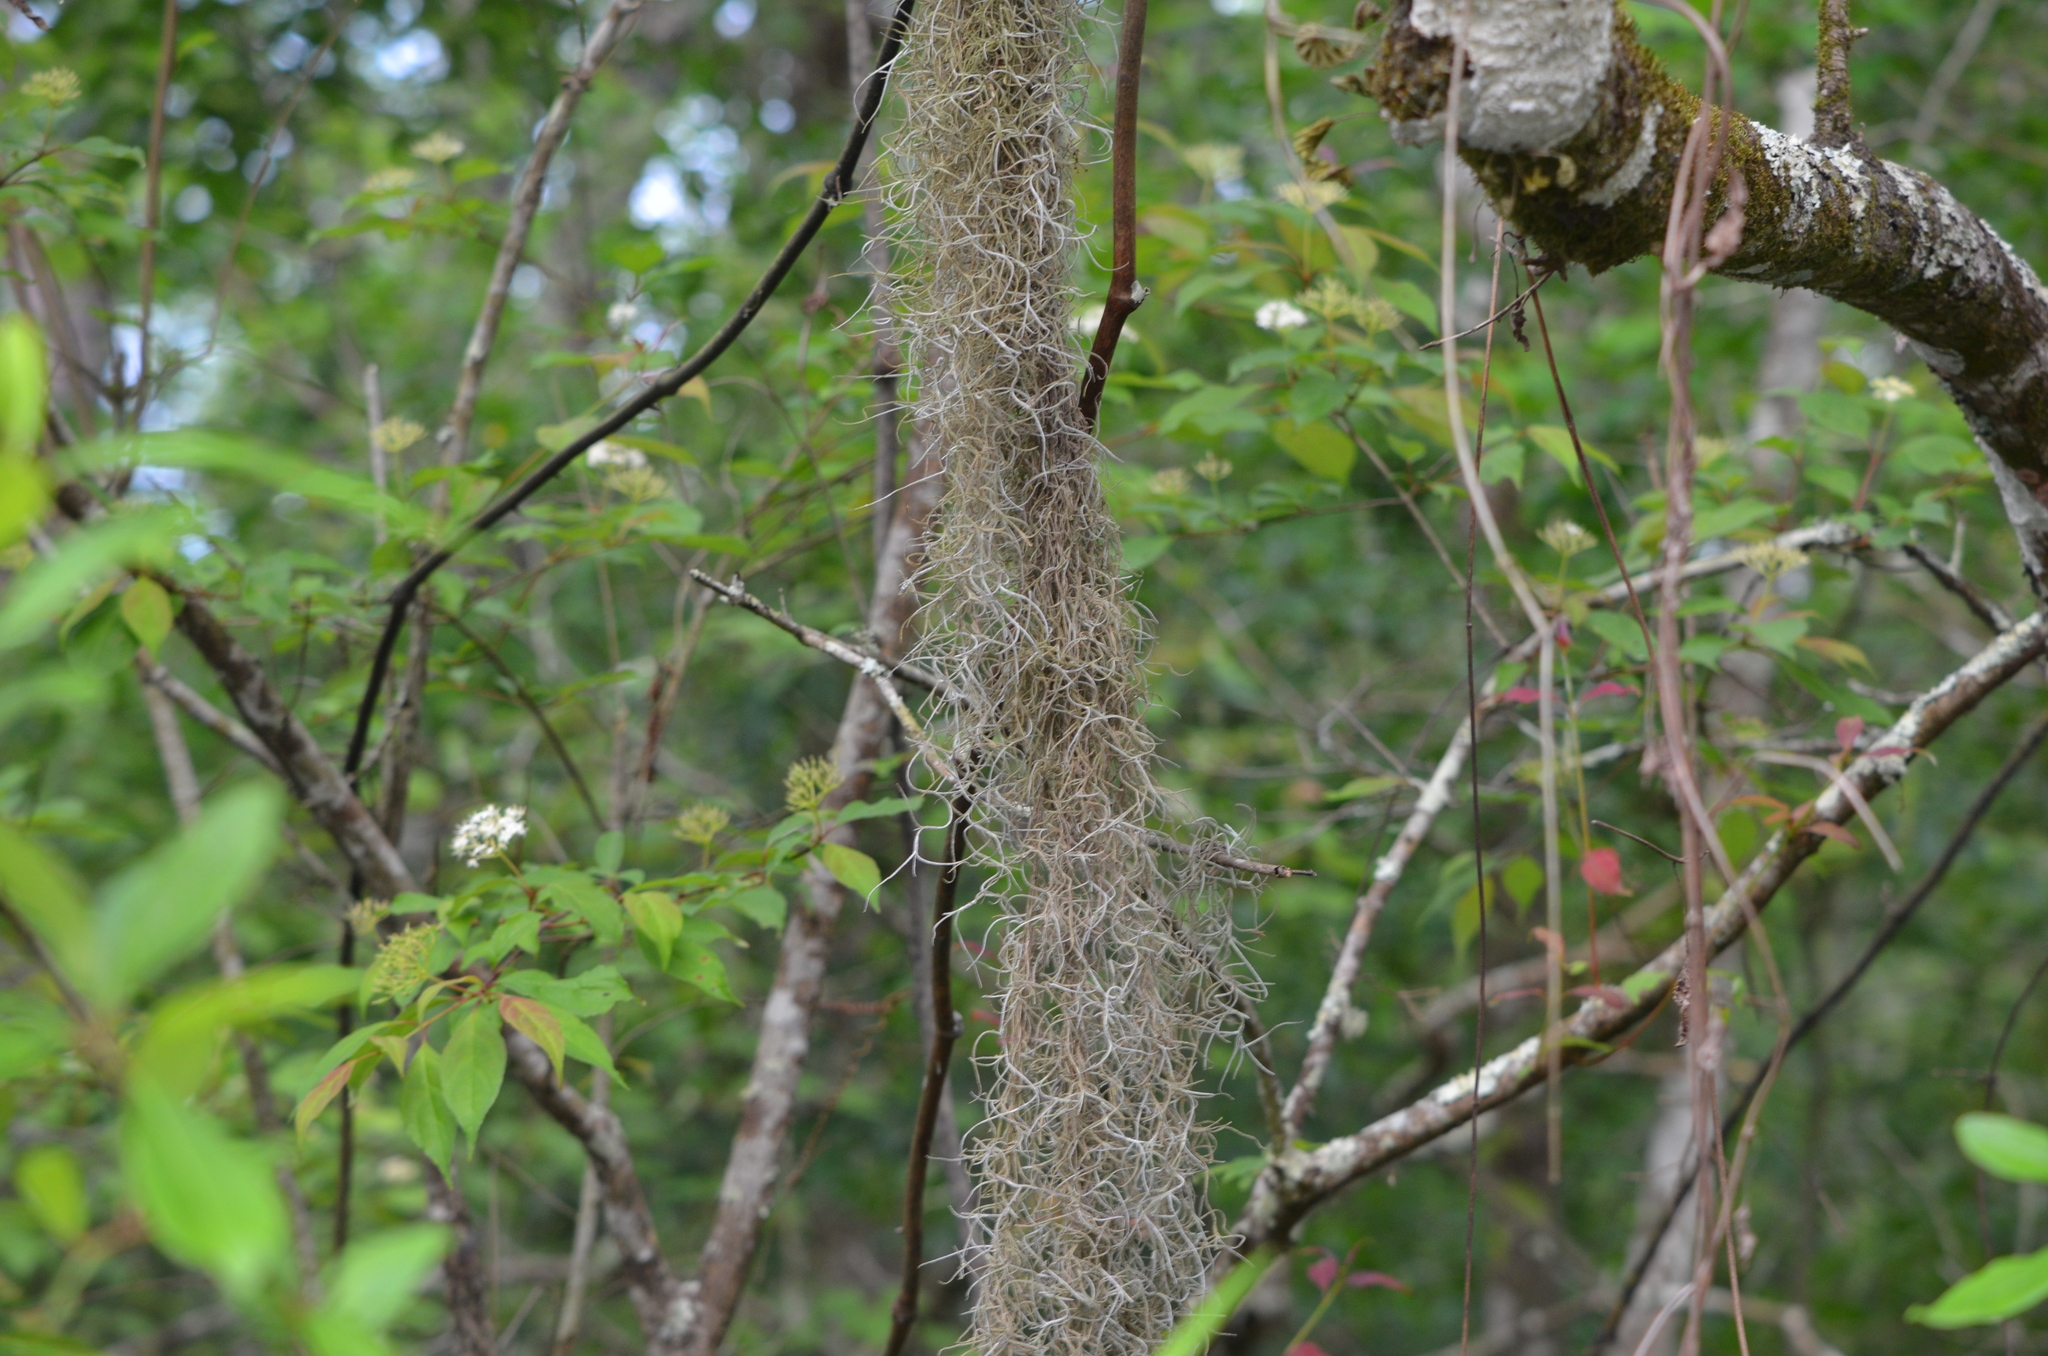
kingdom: Plantae
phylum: Tracheophyta
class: Liliopsida
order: Poales
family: Bromeliaceae
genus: Tillandsia
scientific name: Tillandsia usneoides
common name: Spanish moss
